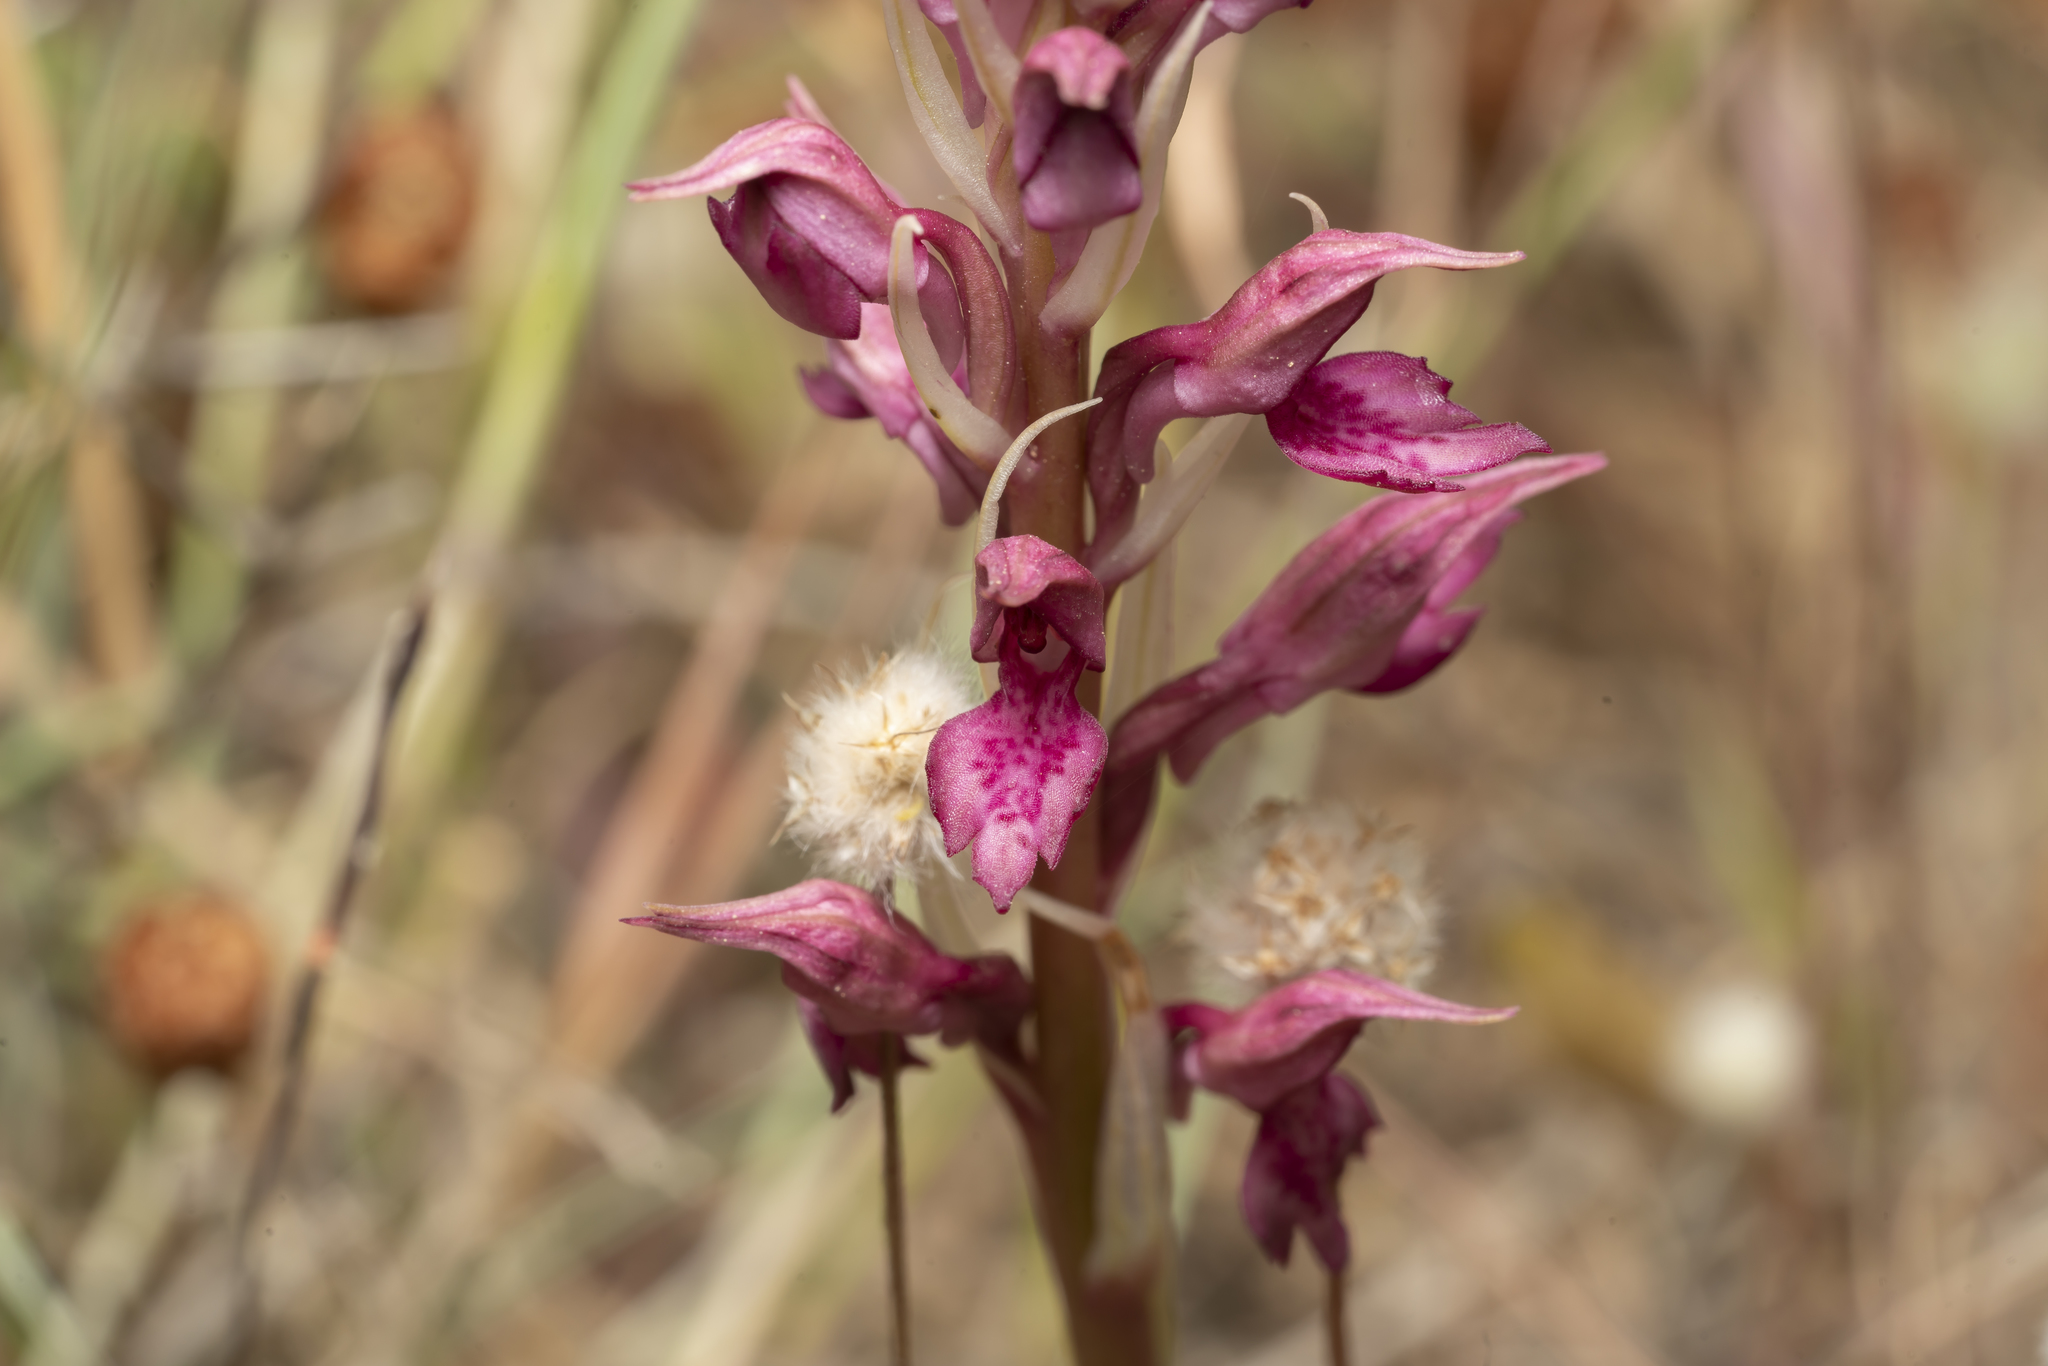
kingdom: Plantae
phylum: Tracheophyta
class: Liliopsida
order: Asparagales
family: Orchidaceae
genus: Orchis
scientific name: Orchis kallithea
